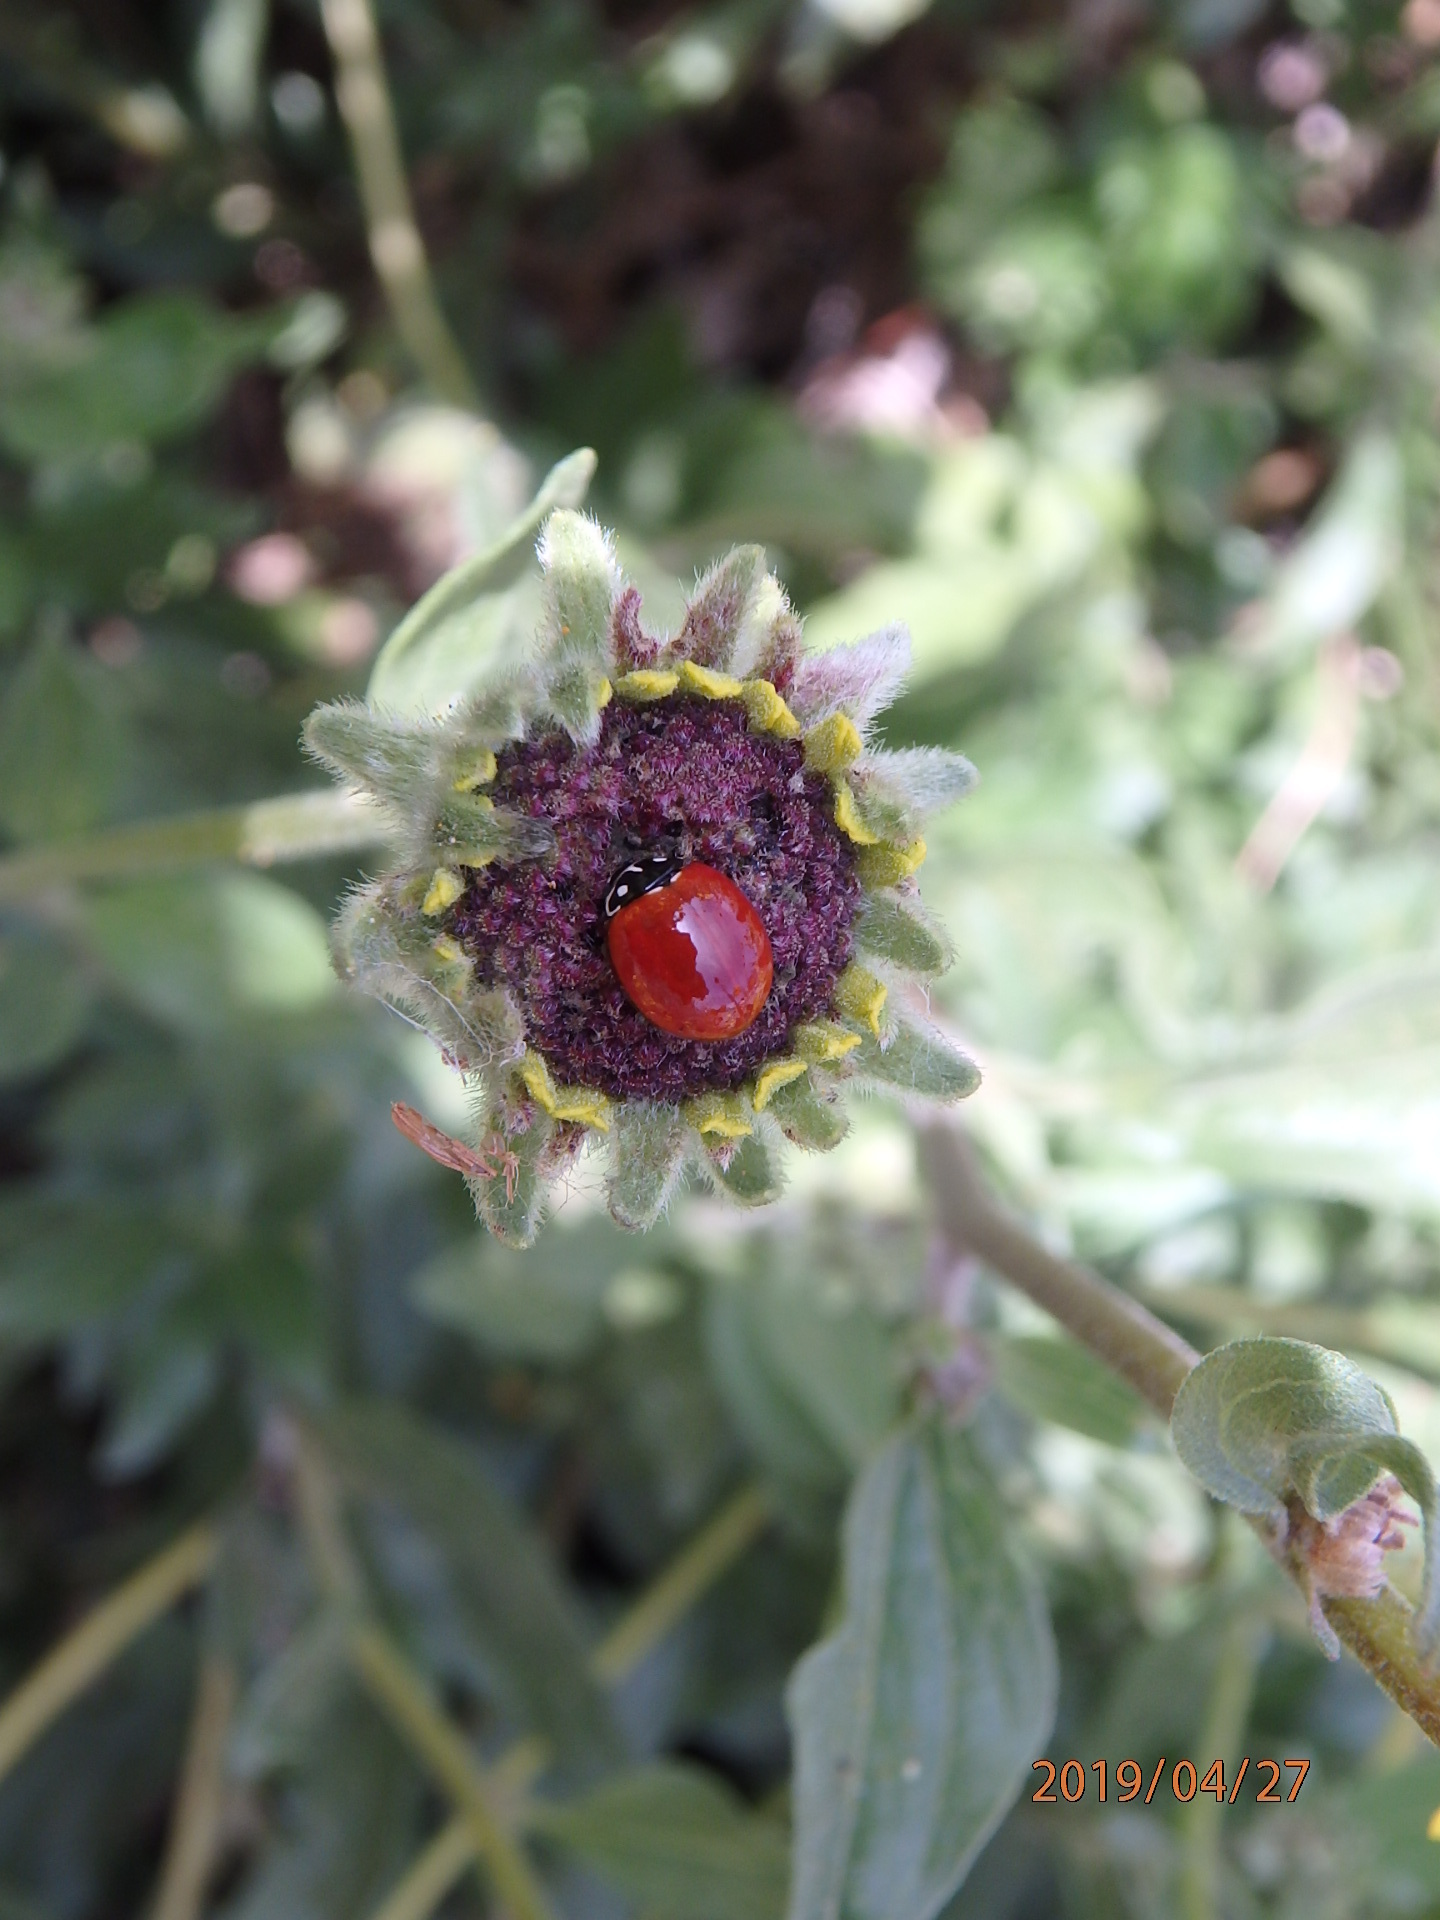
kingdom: Animalia
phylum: Arthropoda
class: Insecta
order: Coleoptera
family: Coccinellidae
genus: Cycloneda
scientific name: Cycloneda sanguinea
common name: Ladybird beetle
